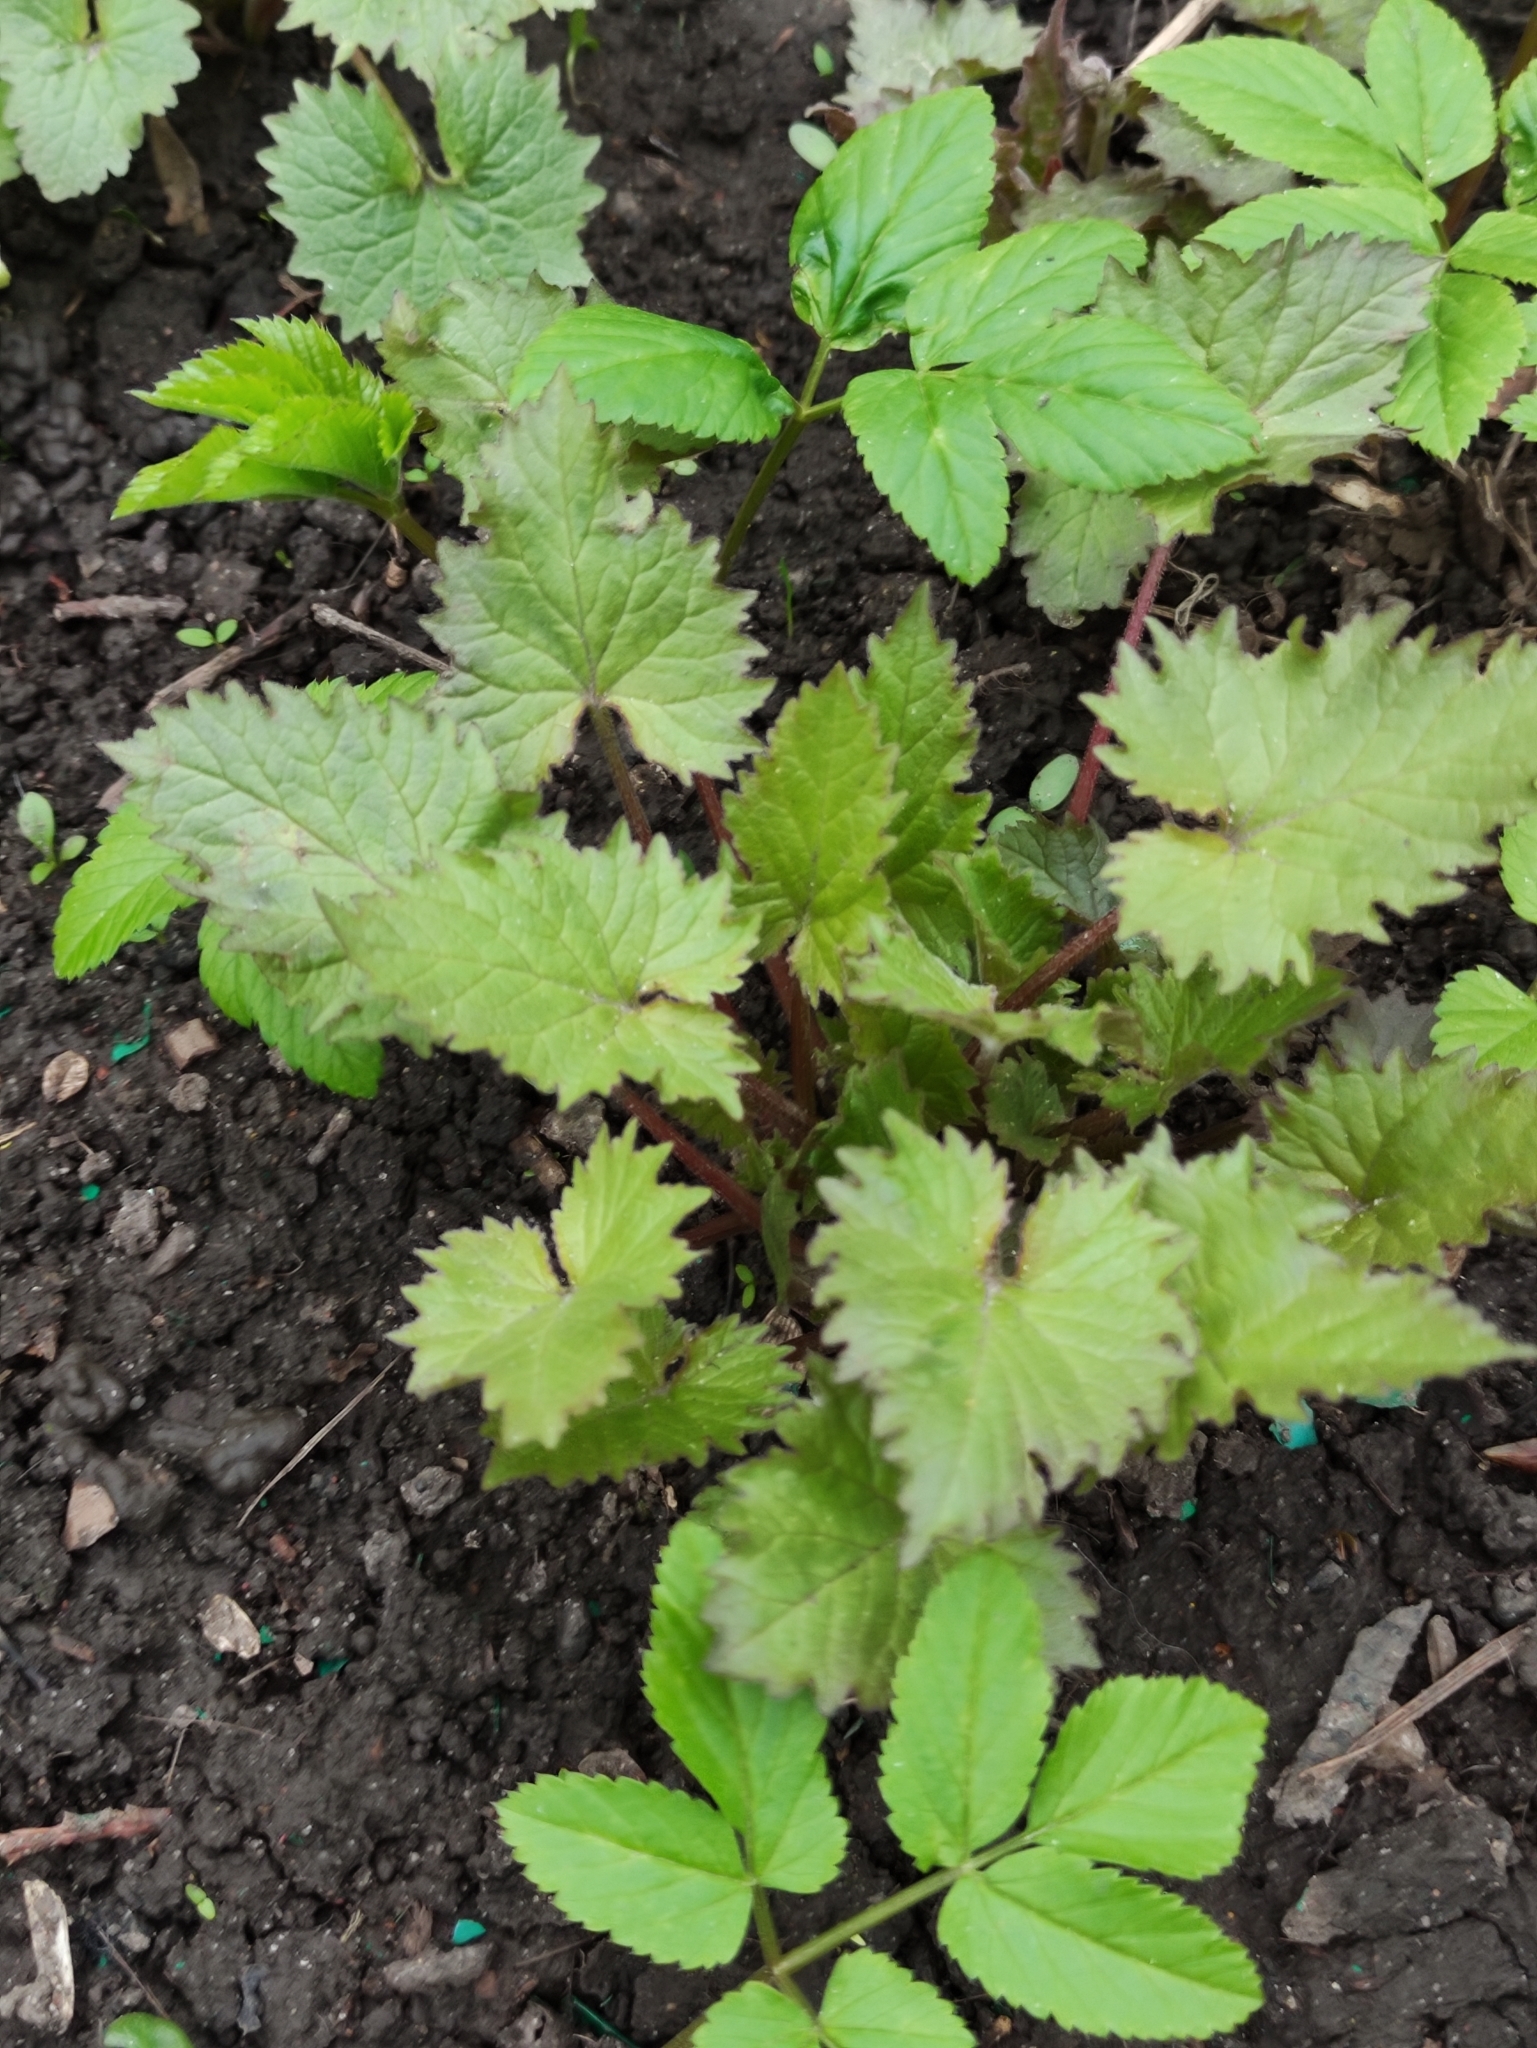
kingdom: Plantae
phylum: Tracheophyta
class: Magnoliopsida
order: Asterales
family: Campanulaceae
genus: Campanula
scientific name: Campanula trachelium
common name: Nettle-leaved bellflower
